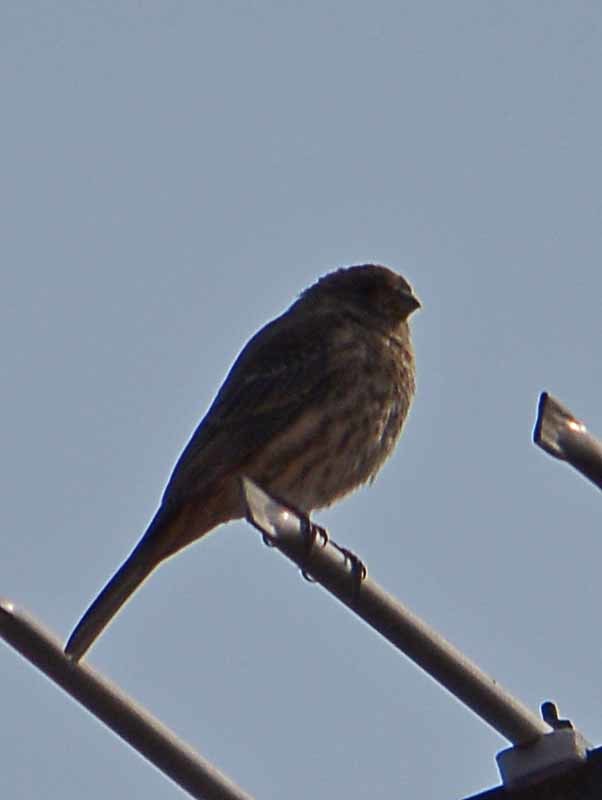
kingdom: Animalia
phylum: Chordata
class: Aves
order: Passeriformes
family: Fringillidae
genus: Haemorhous
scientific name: Haemorhous mexicanus
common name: House finch
